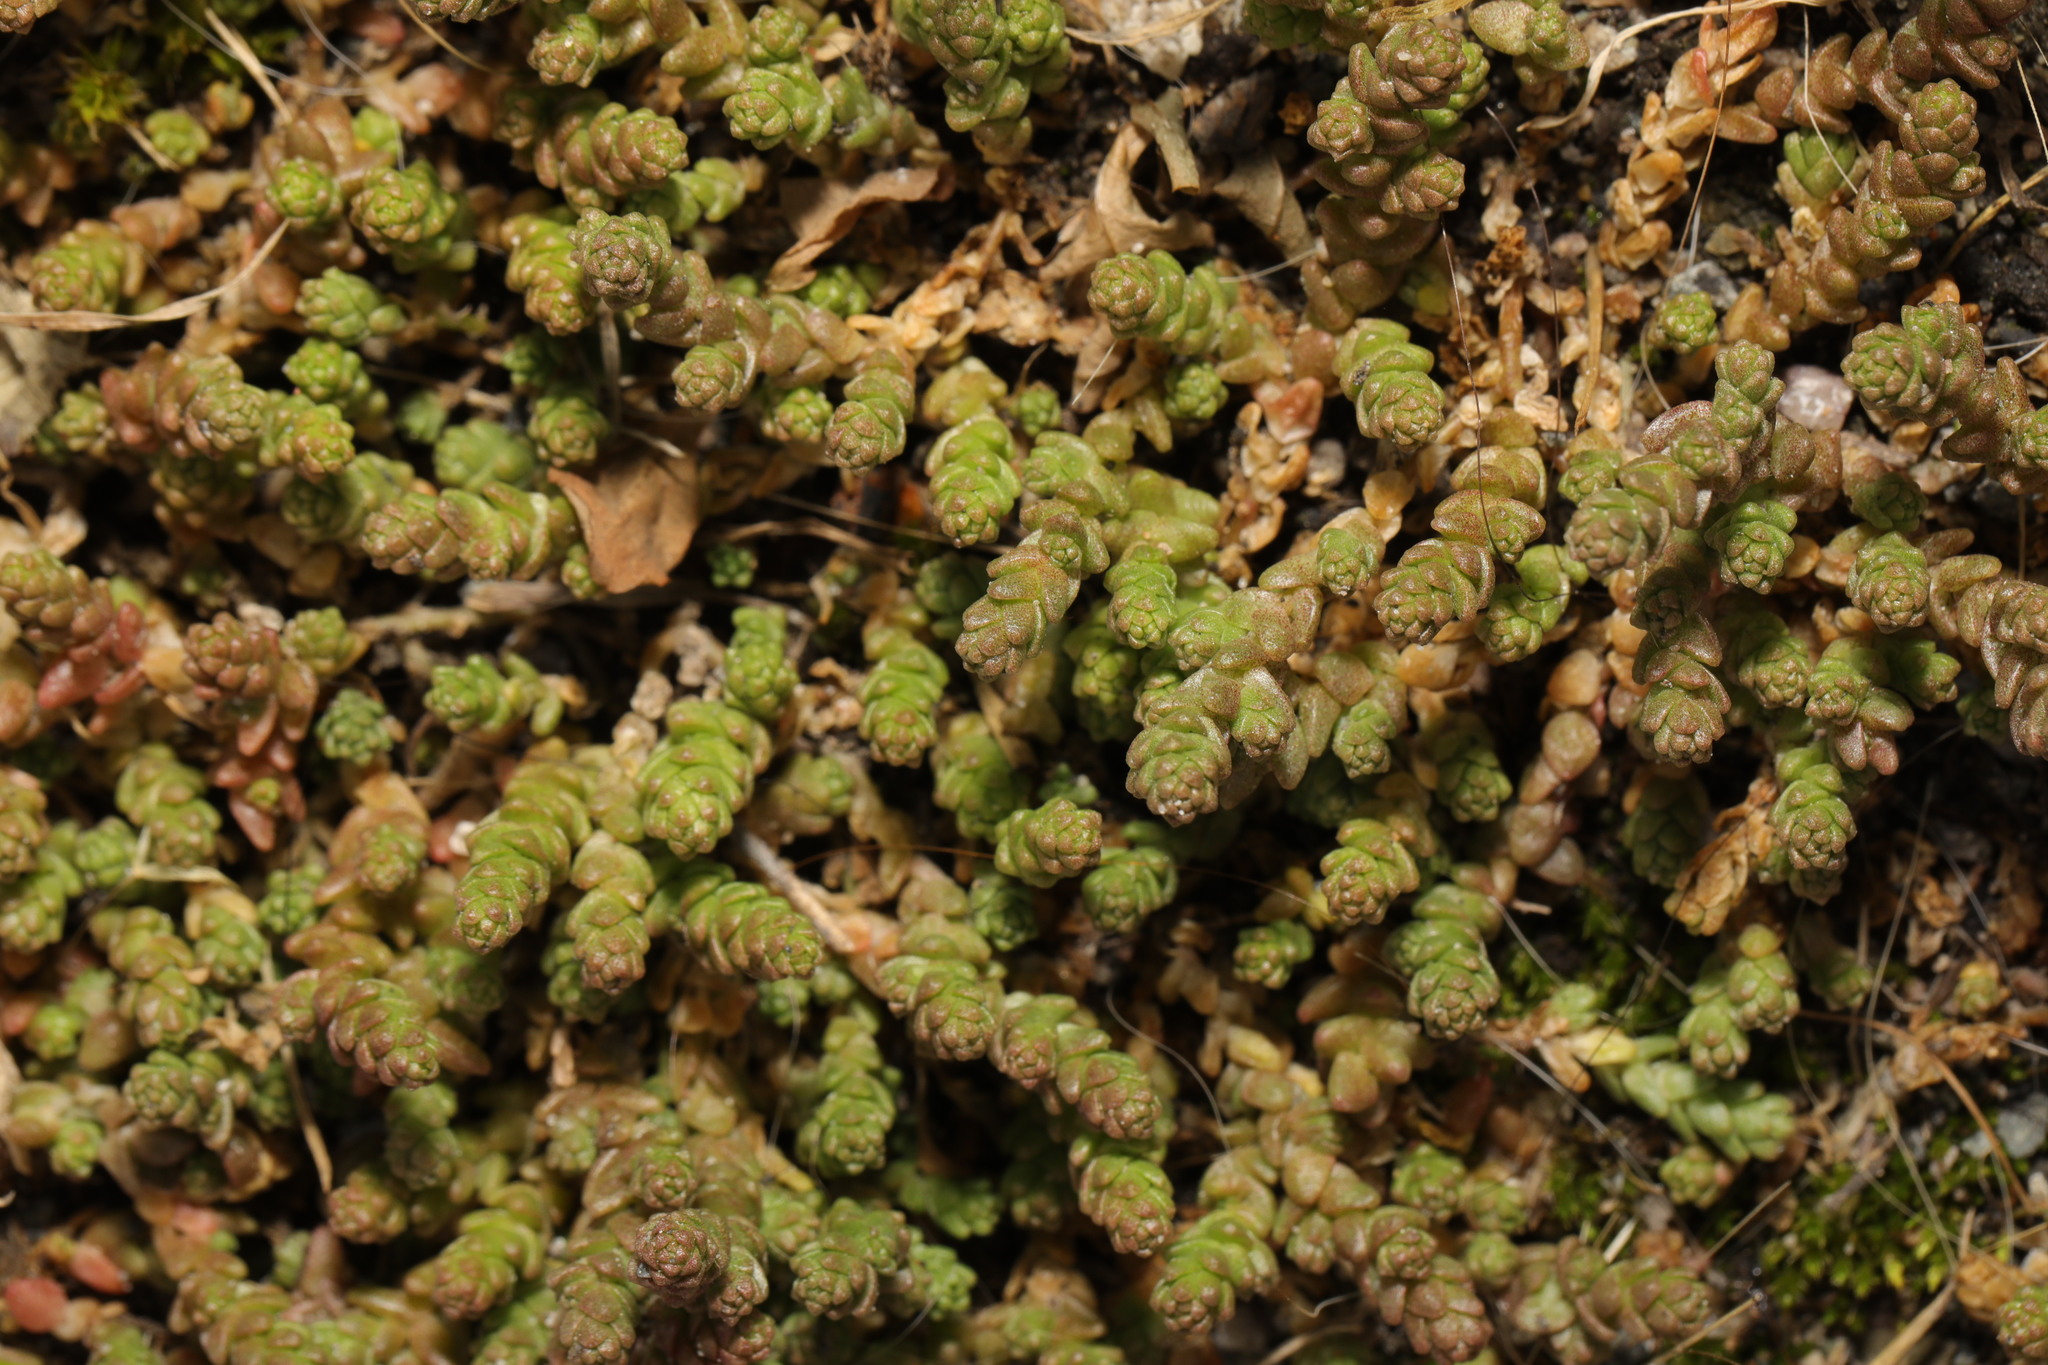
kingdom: Plantae
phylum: Tracheophyta
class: Magnoliopsida
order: Saxifragales
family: Crassulaceae
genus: Sedum
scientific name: Sedum acre
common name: Biting stonecrop
